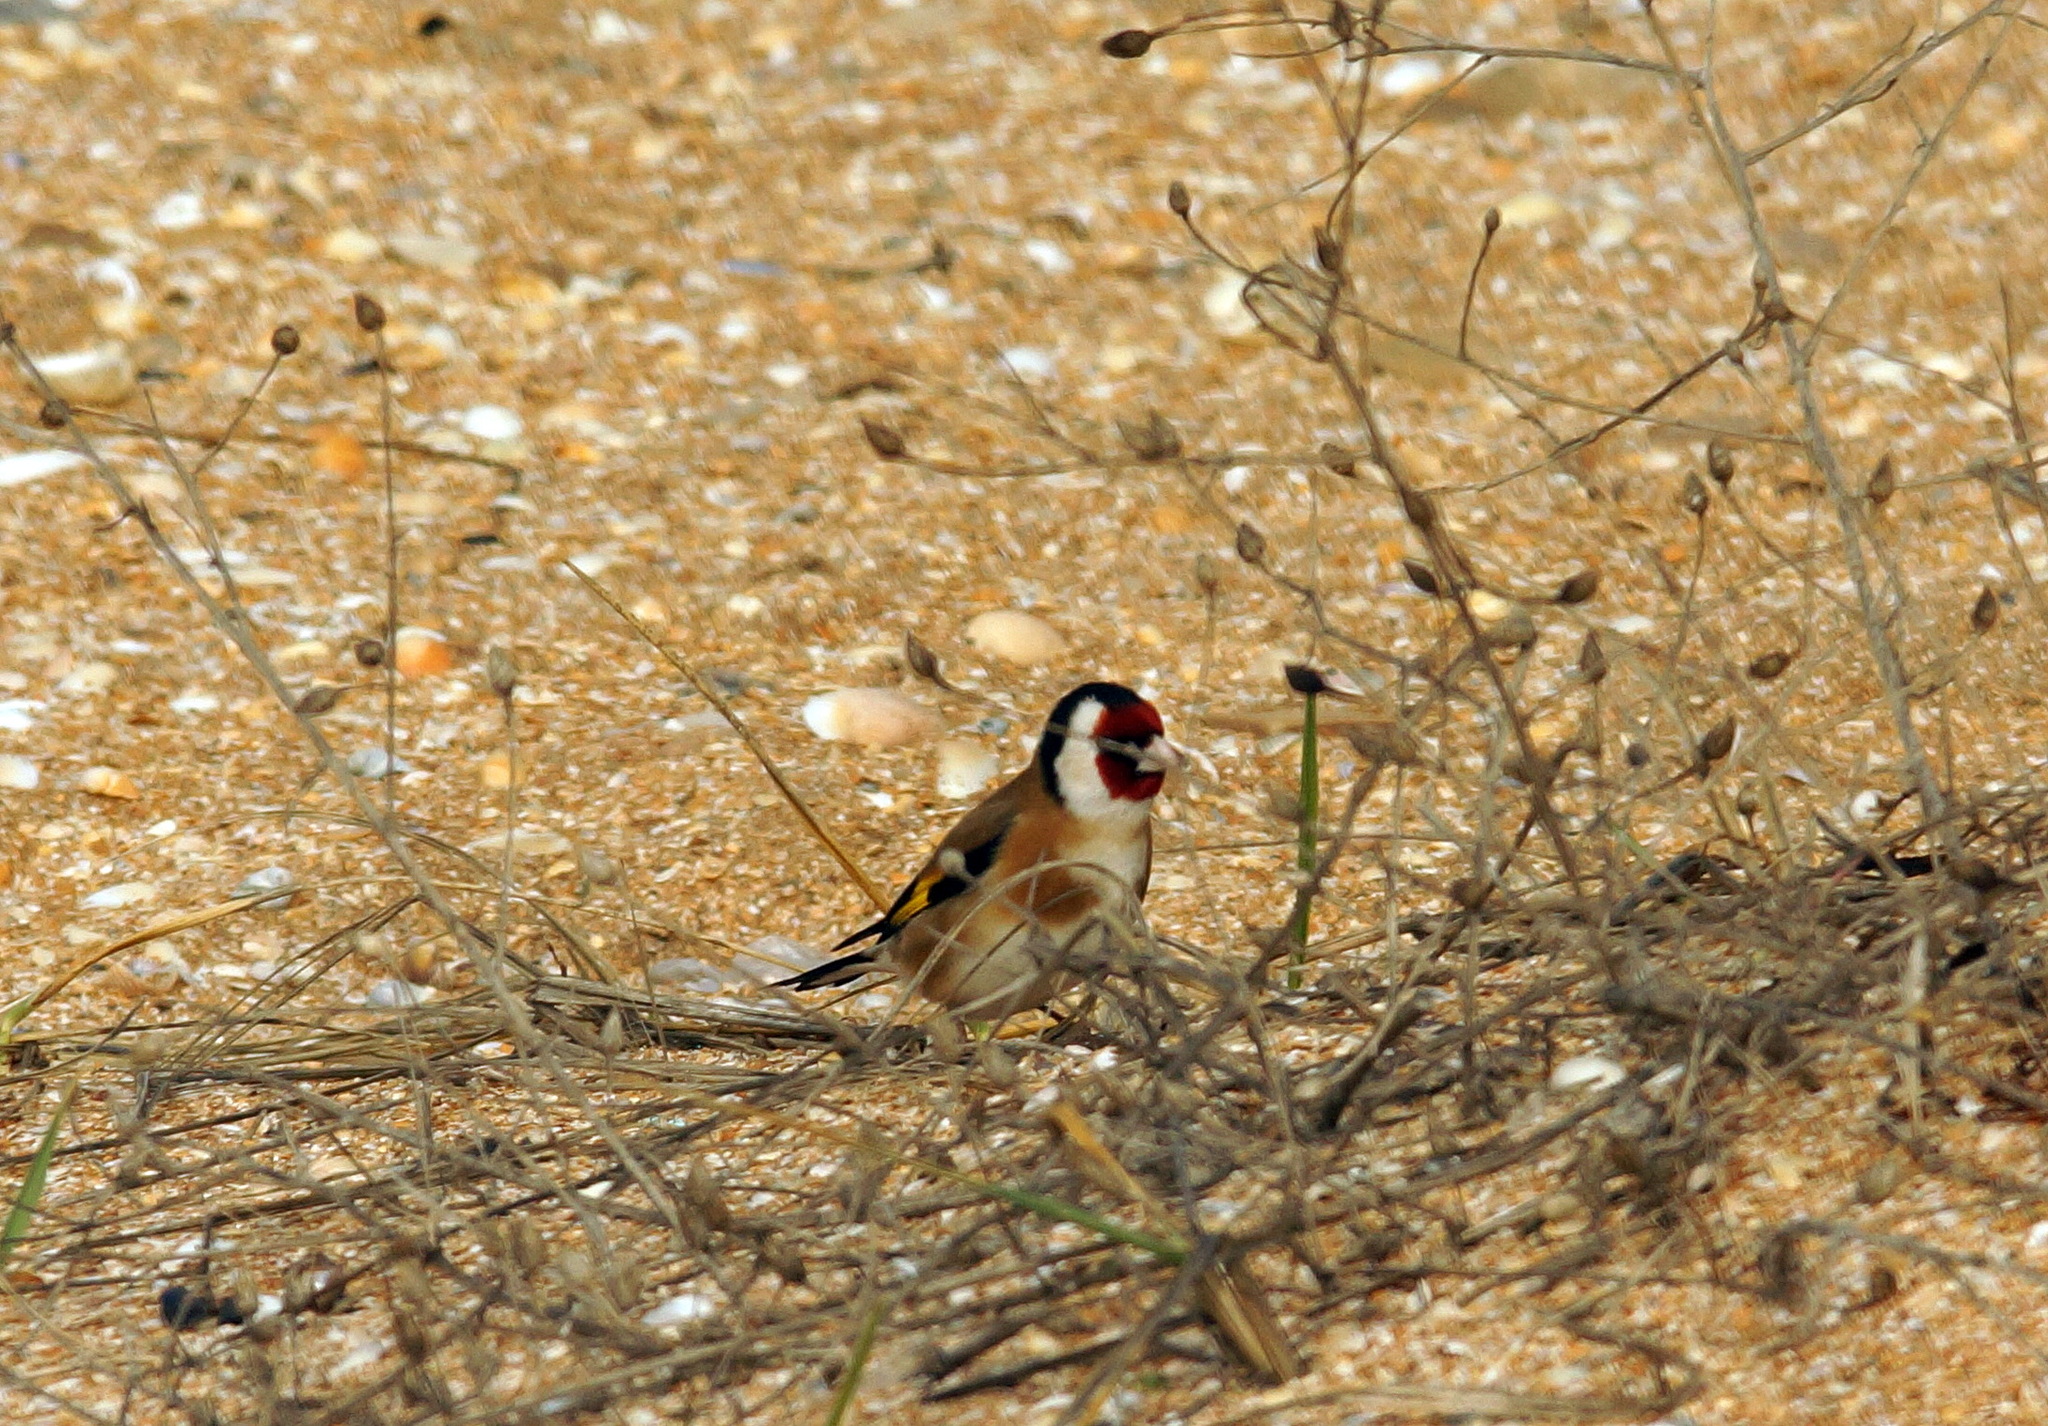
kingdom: Animalia
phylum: Chordata
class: Aves
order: Passeriformes
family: Fringillidae
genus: Carduelis
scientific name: Carduelis carduelis
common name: European goldfinch
